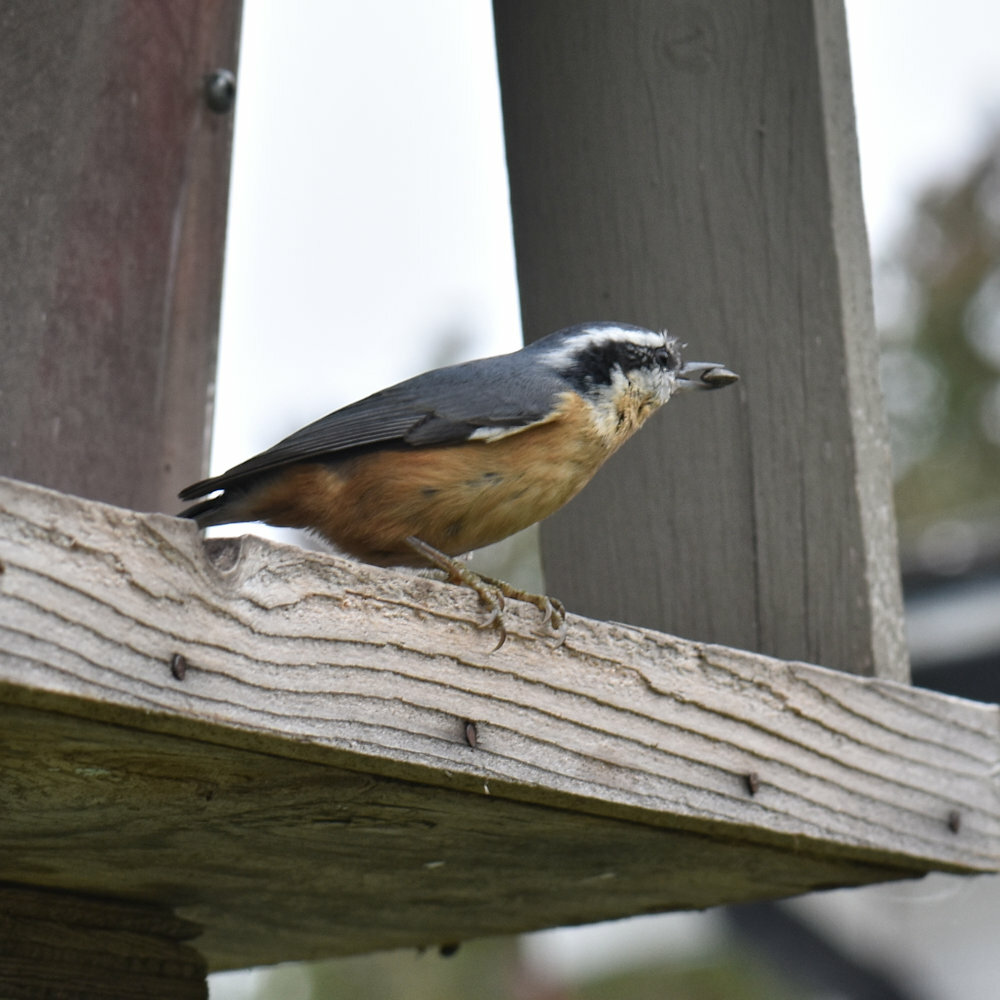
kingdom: Animalia
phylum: Chordata
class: Aves
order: Passeriformes
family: Sittidae
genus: Sitta
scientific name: Sitta canadensis
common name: Red-breasted nuthatch
